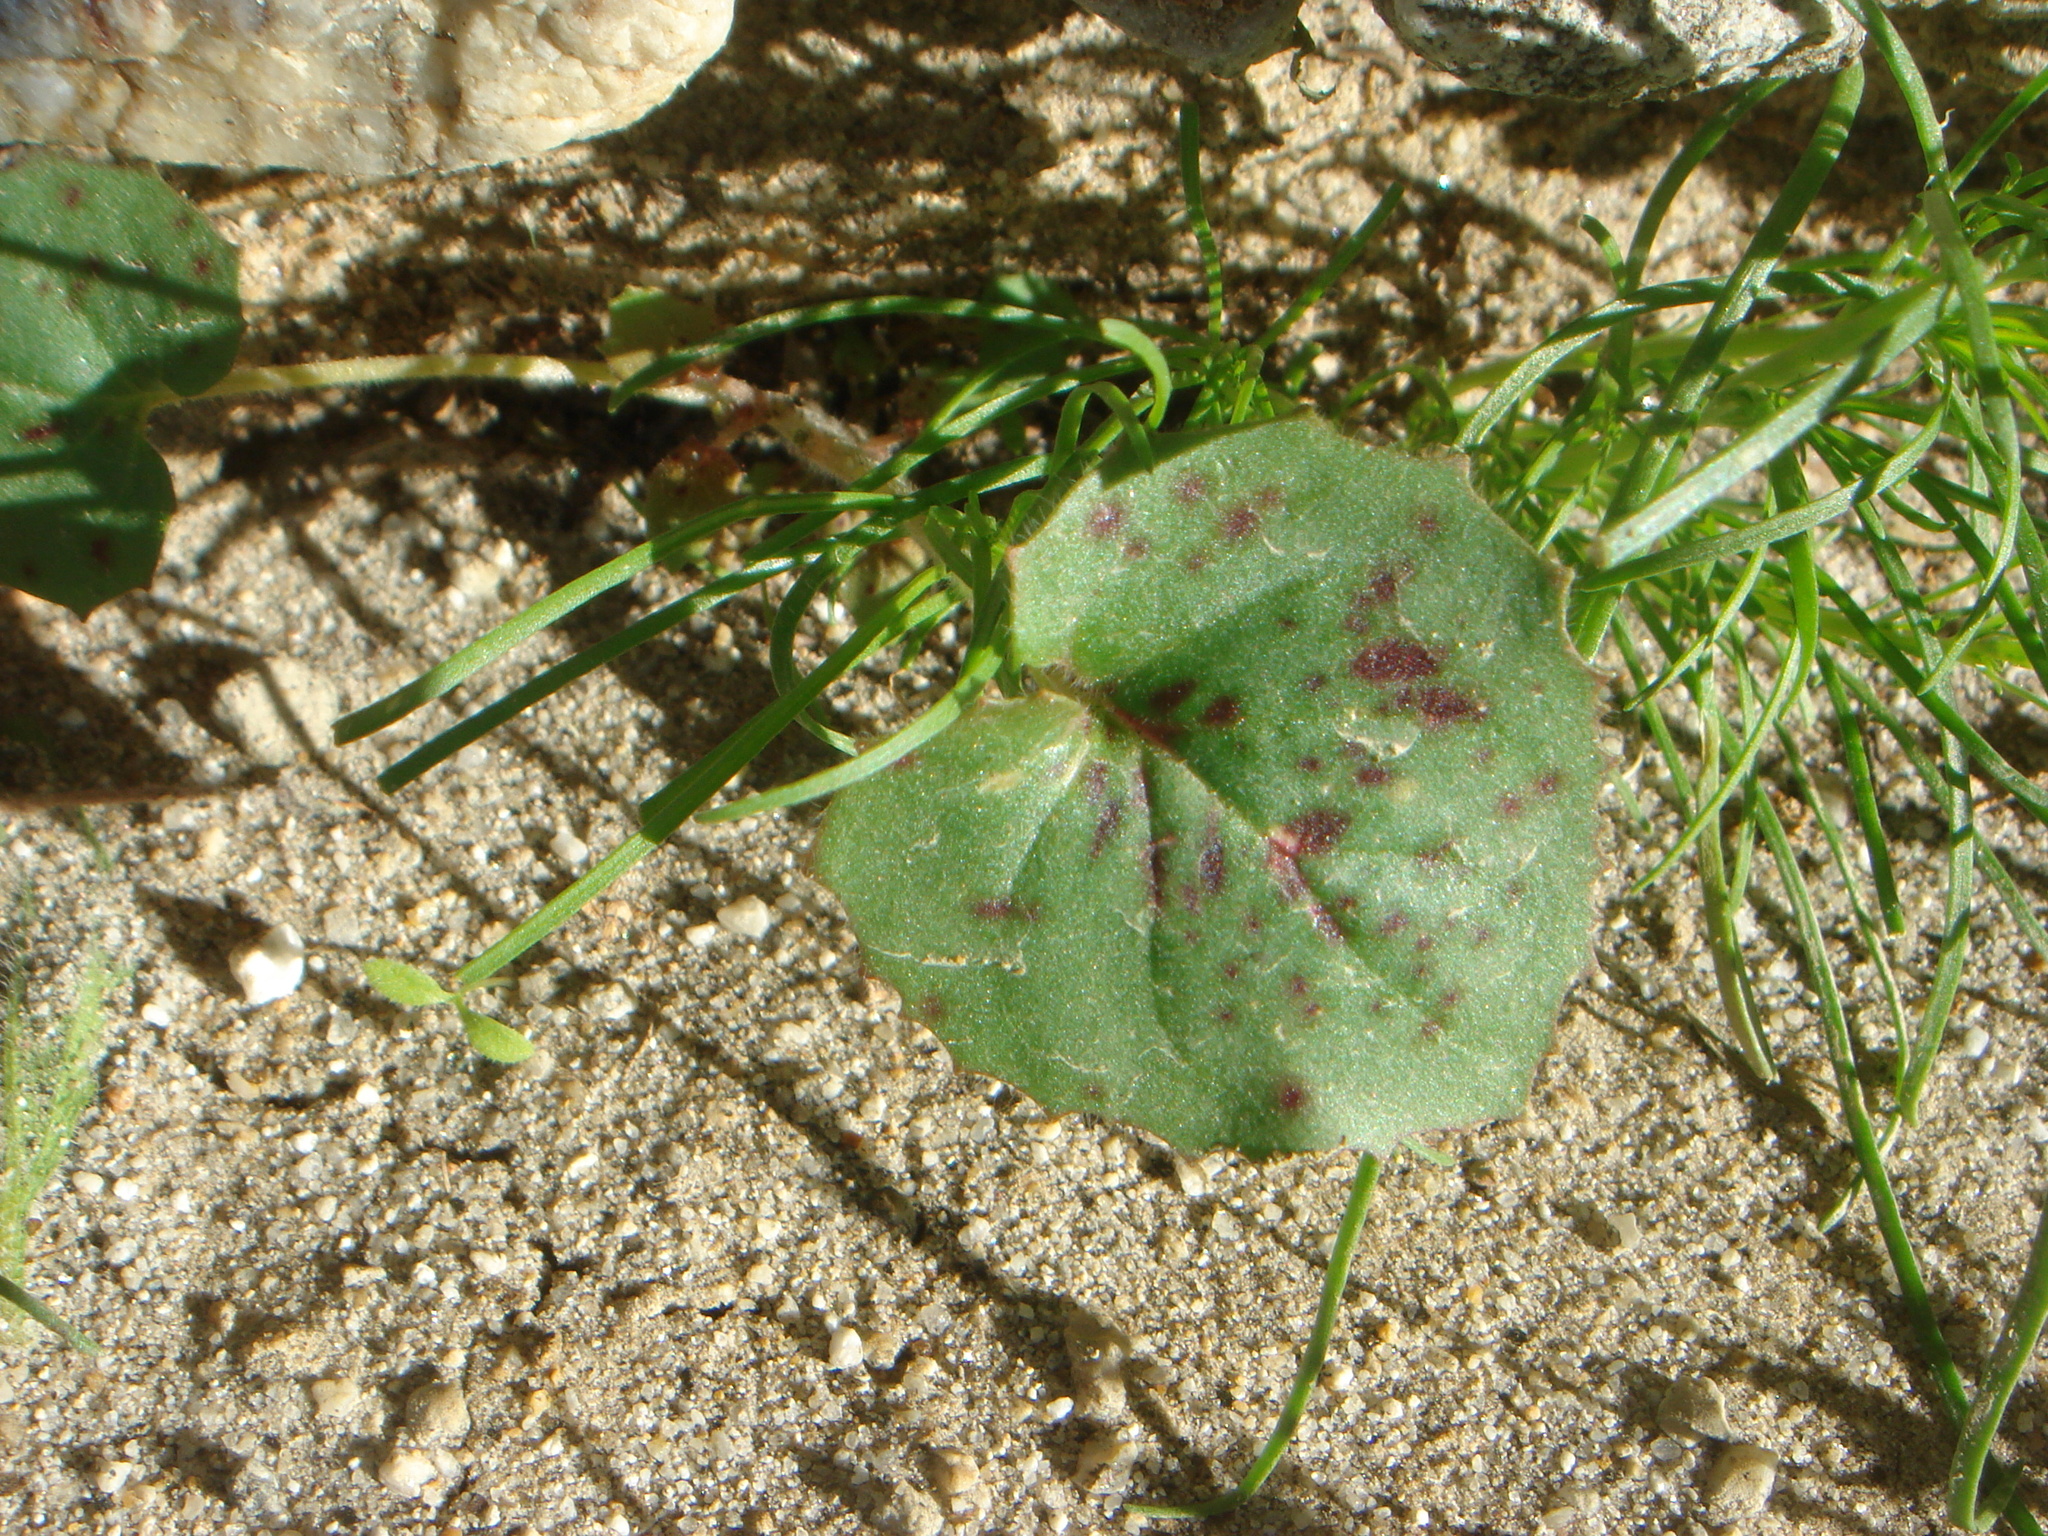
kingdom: Plantae
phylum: Tracheophyta
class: Magnoliopsida
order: Myrtales
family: Onagraceae
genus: Chylismia
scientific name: Chylismia cardiophylla
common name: Heartleaf suncup
